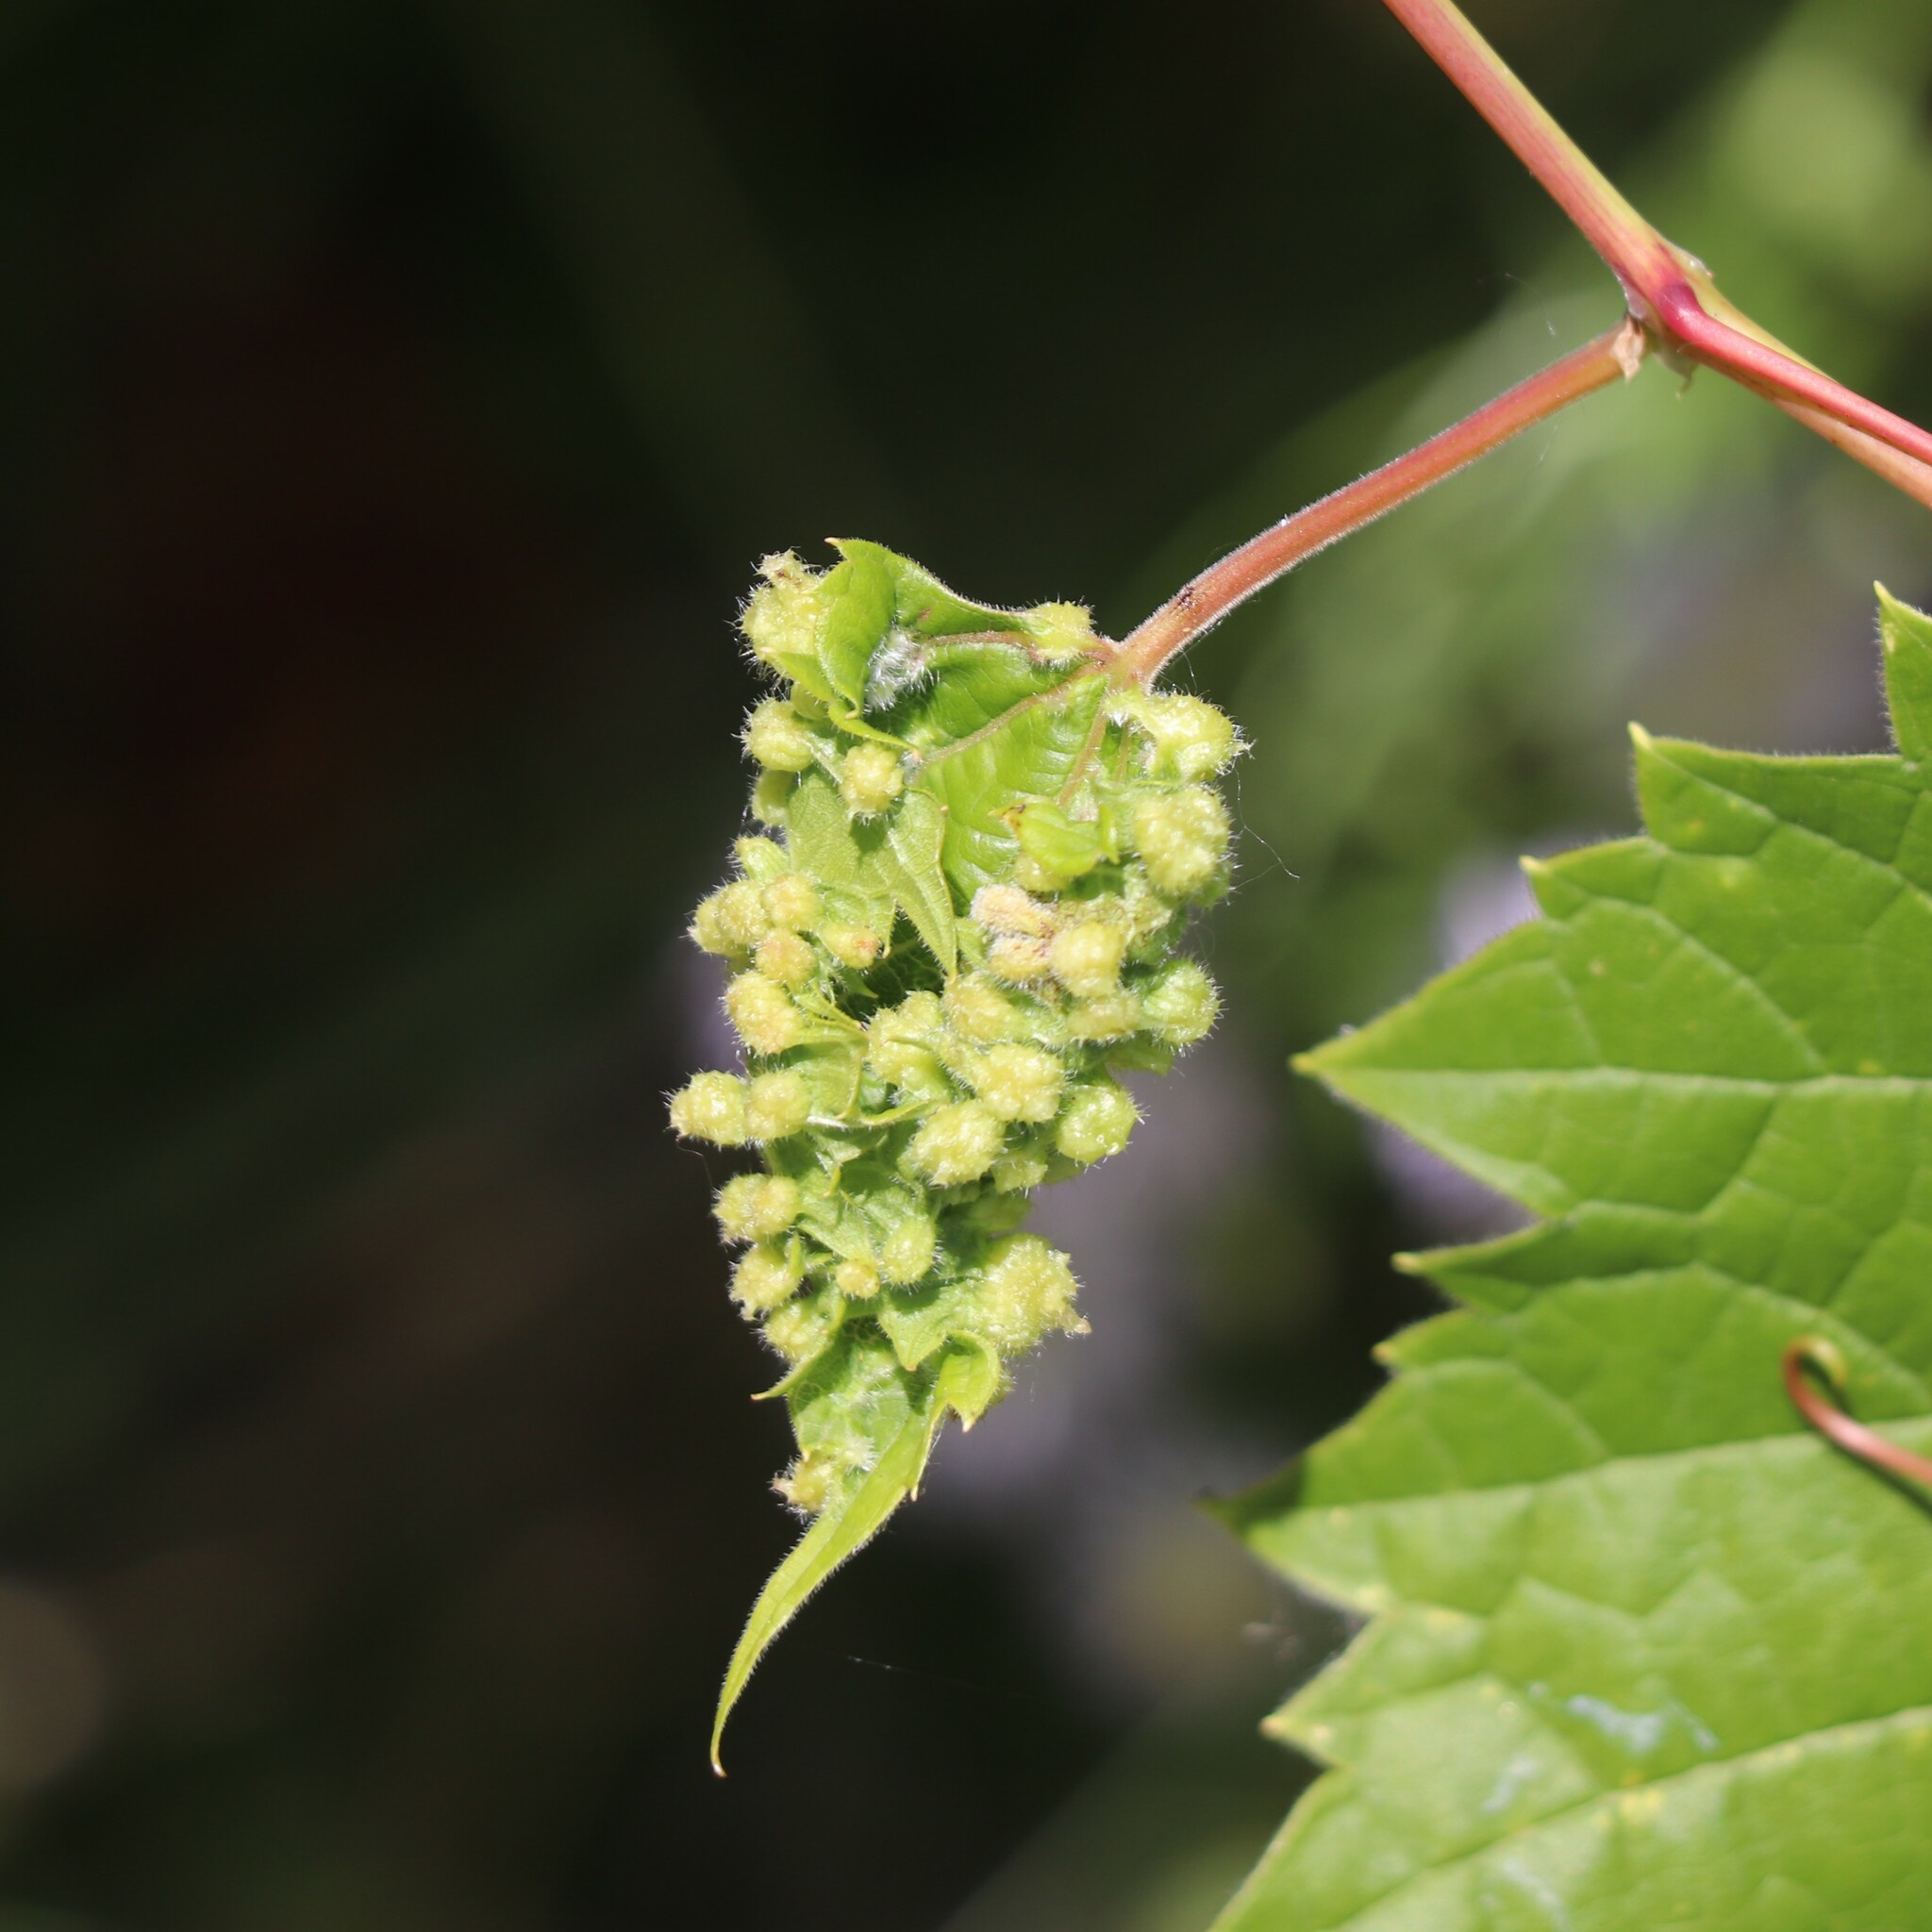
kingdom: Animalia
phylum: Arthropoda
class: Insecta
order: Hemiptera
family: Phylloxeridae
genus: Daktulosphaira
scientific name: Daktulosphaira vitifoliae
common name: Grape phylloxera
